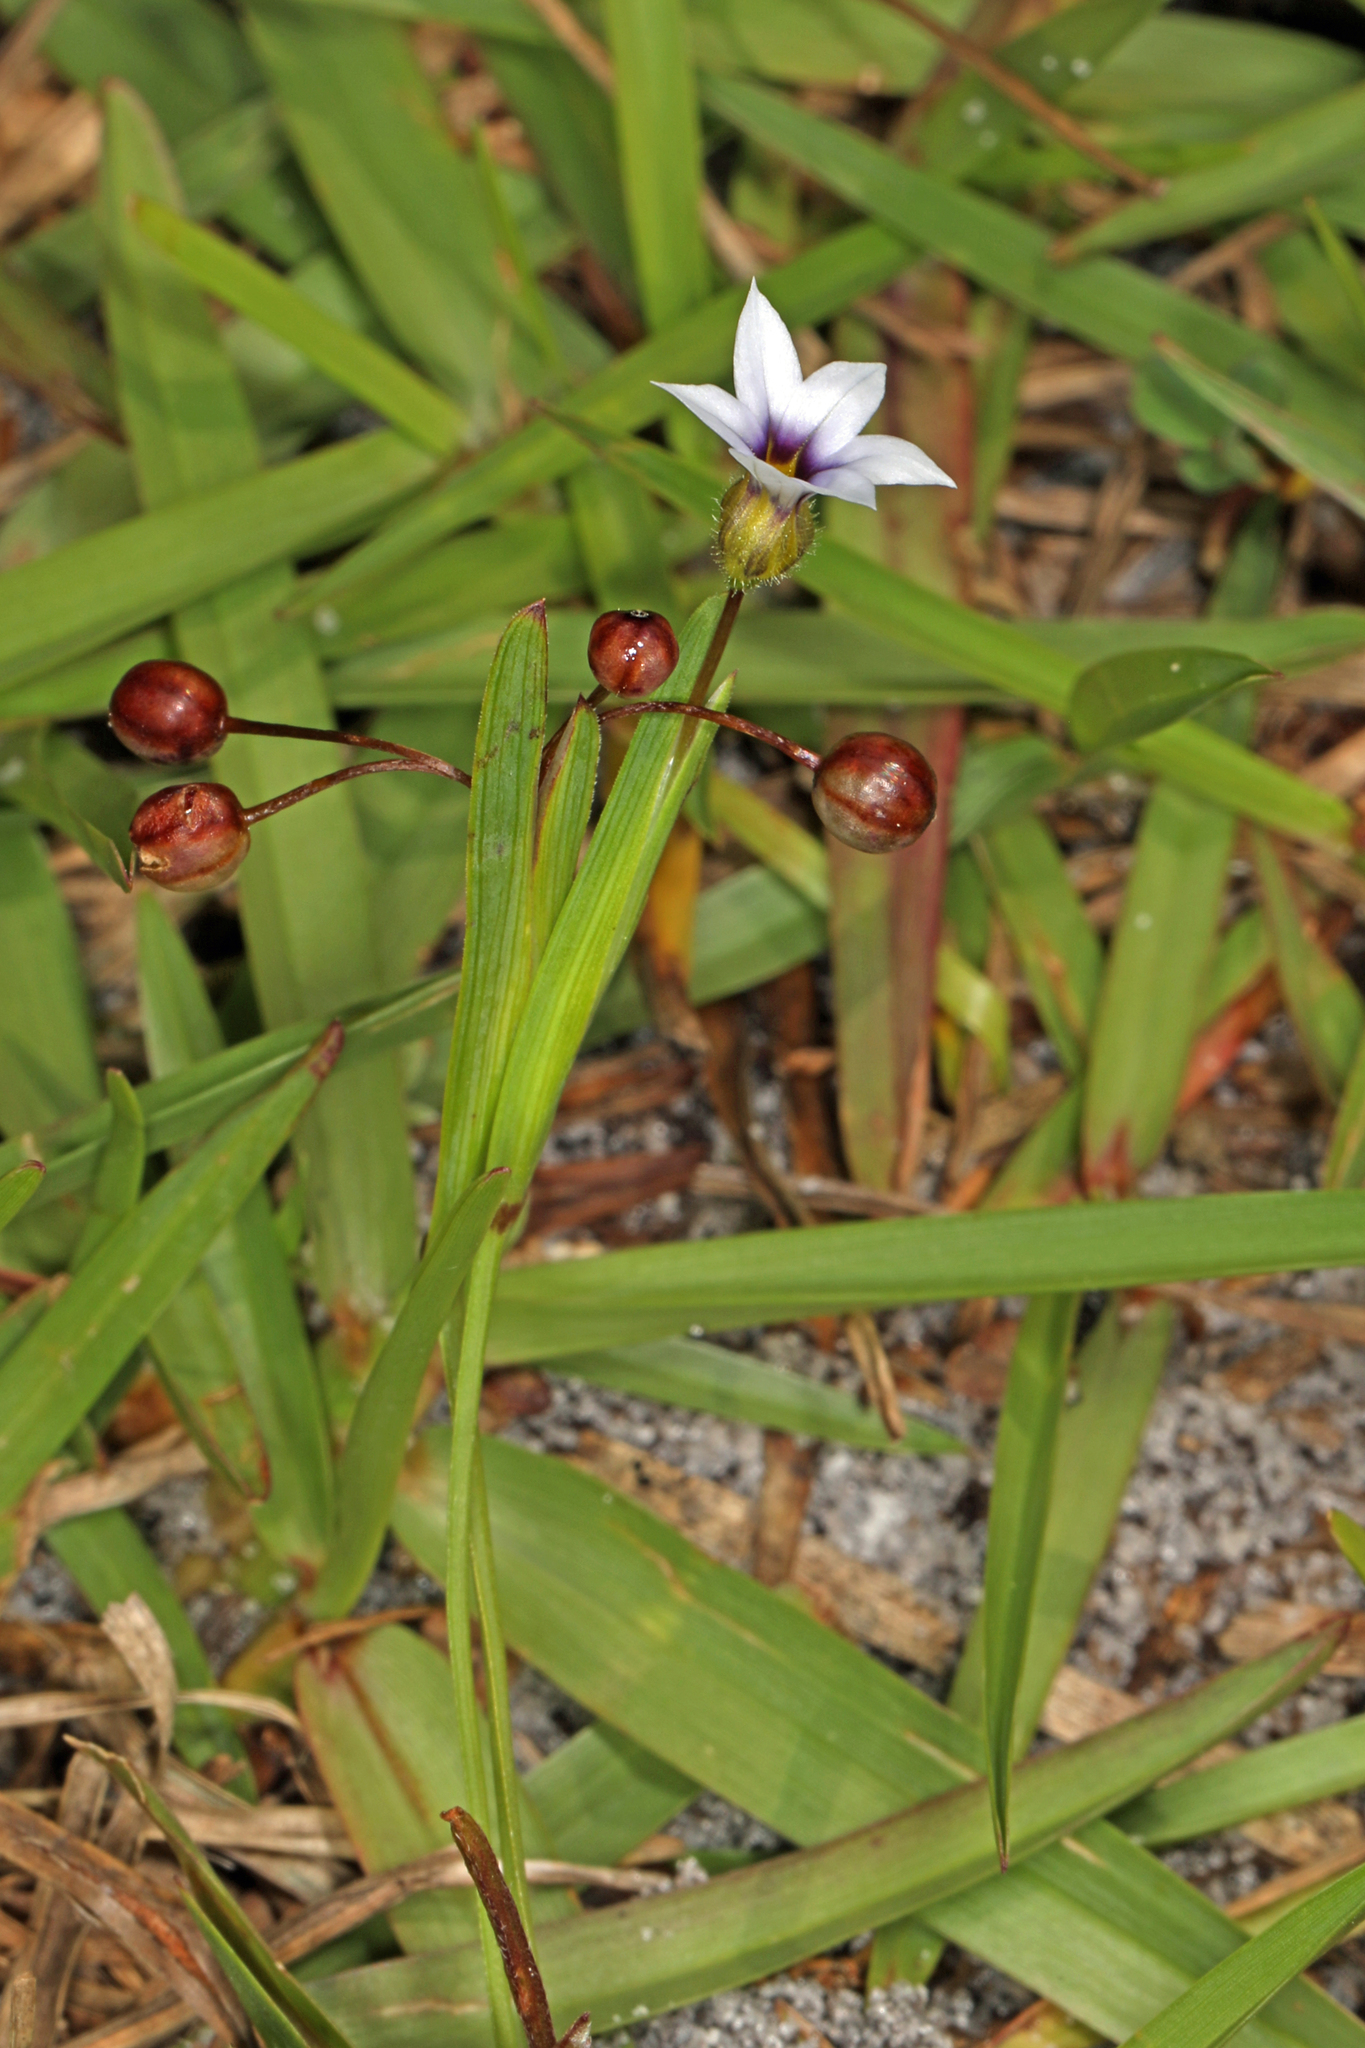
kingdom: Plantae
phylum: Tracheophyta
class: Liliopsida
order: Asparagales
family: Iridaceae
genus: Sisyrinchium
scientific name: Sisyrinchium micranthum
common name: Bermuda pigroot
